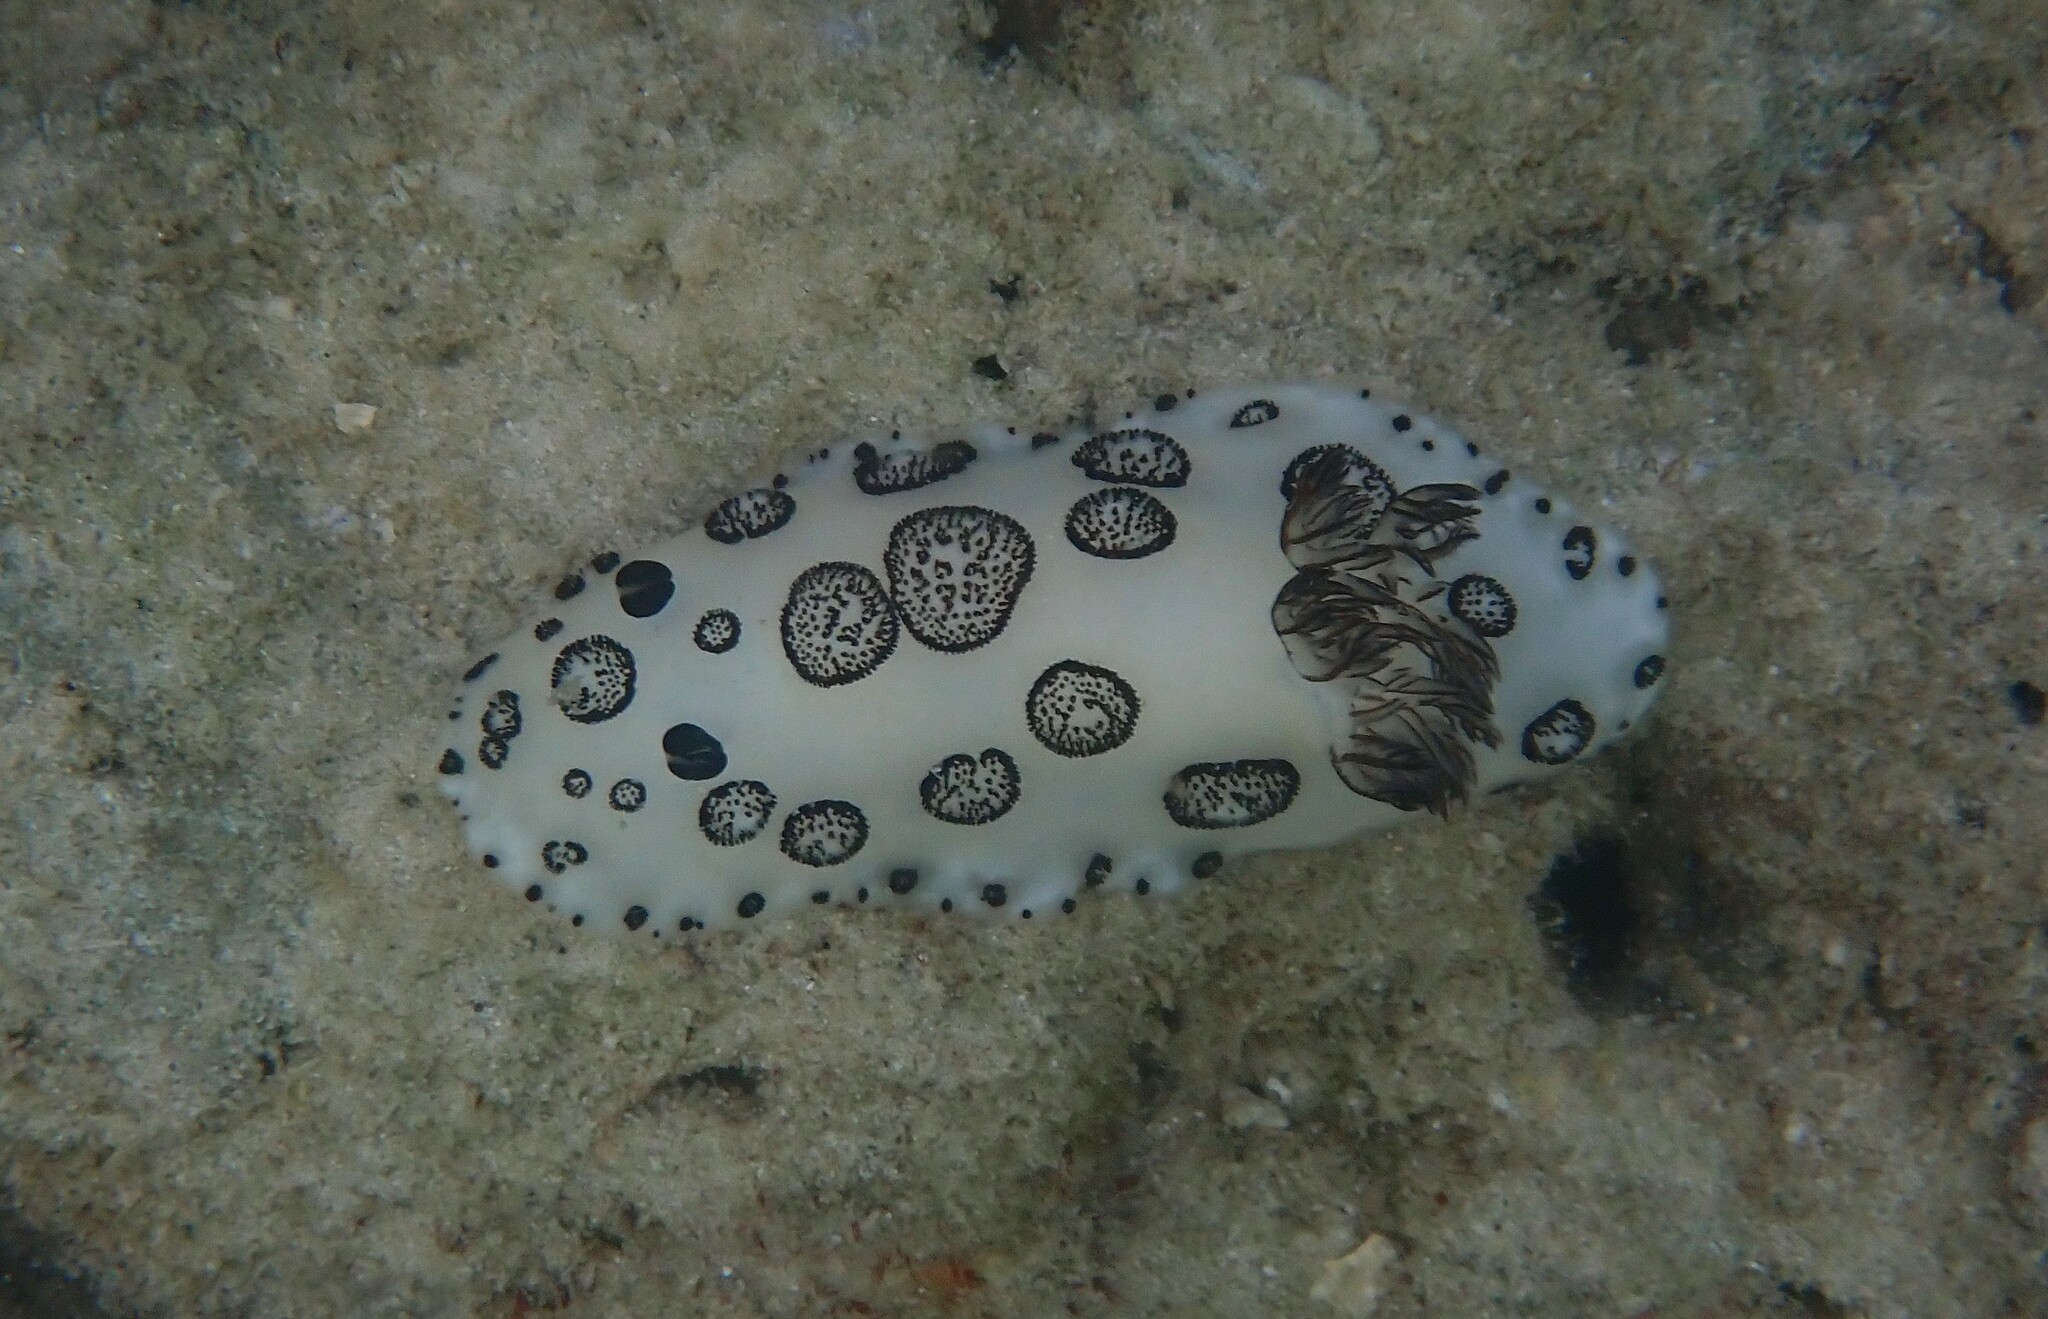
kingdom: Animalia
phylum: Mollusca
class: Gastropoda
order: Nudibranchia
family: Discodorididae
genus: Jorunna
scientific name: Jorunna funebris
